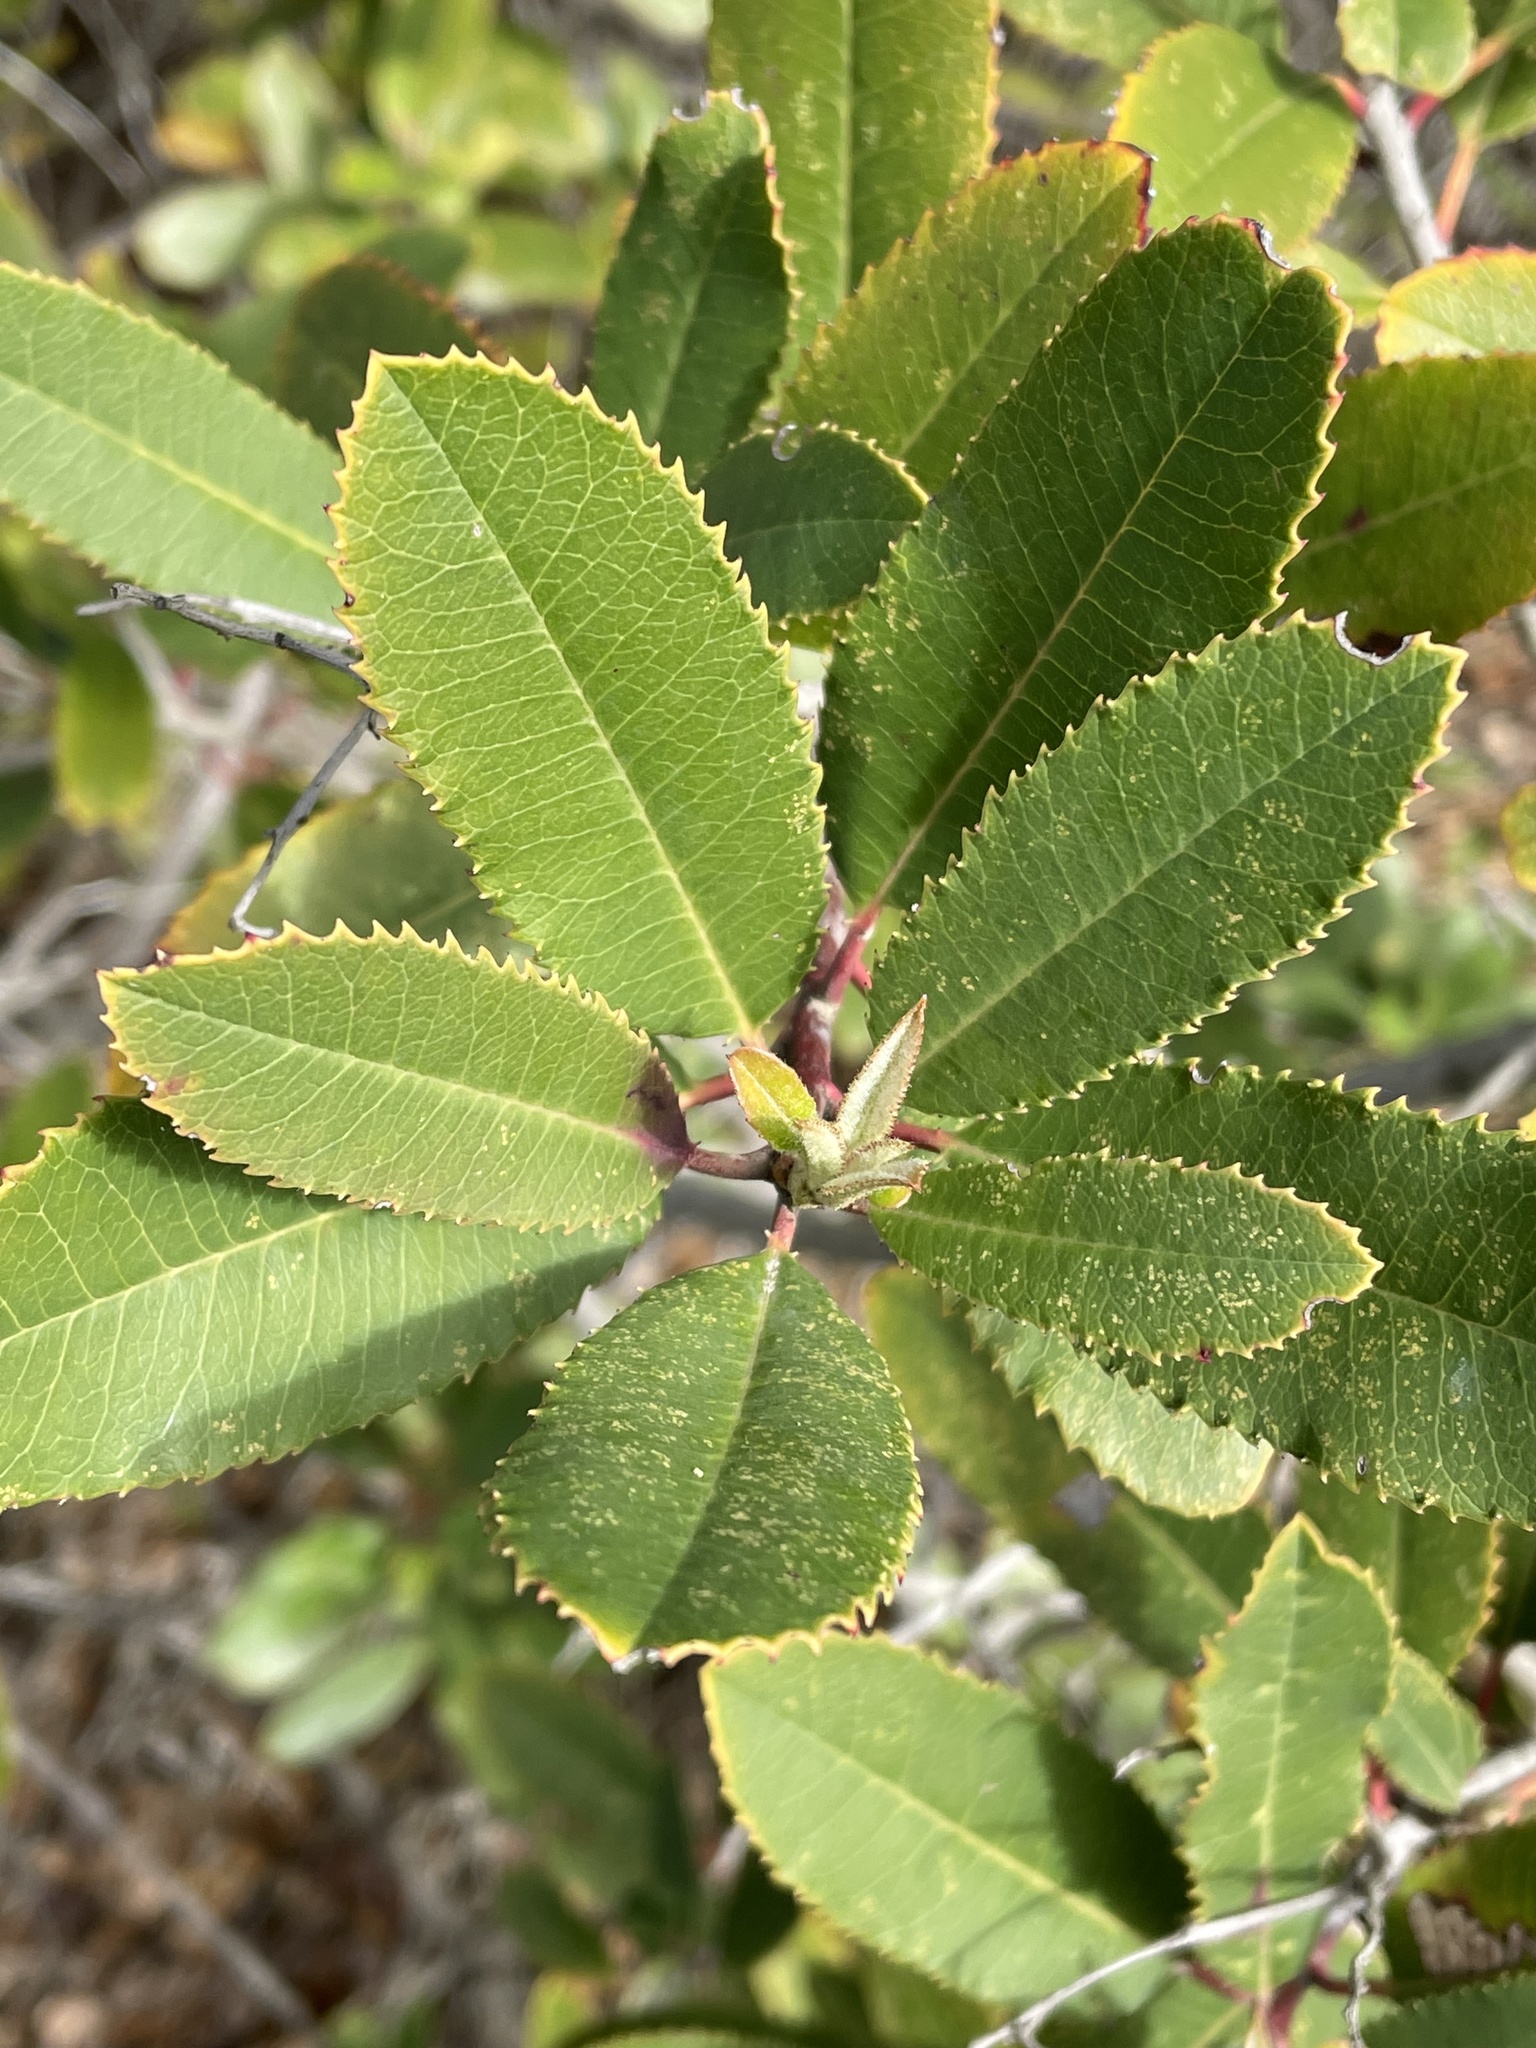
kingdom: Plantae
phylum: Tracheophyta
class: Magnoliopsida
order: Rosales
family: Rosaceae
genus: Heteromeles
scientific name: Heteromeles arbutifolia
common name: California-holly
